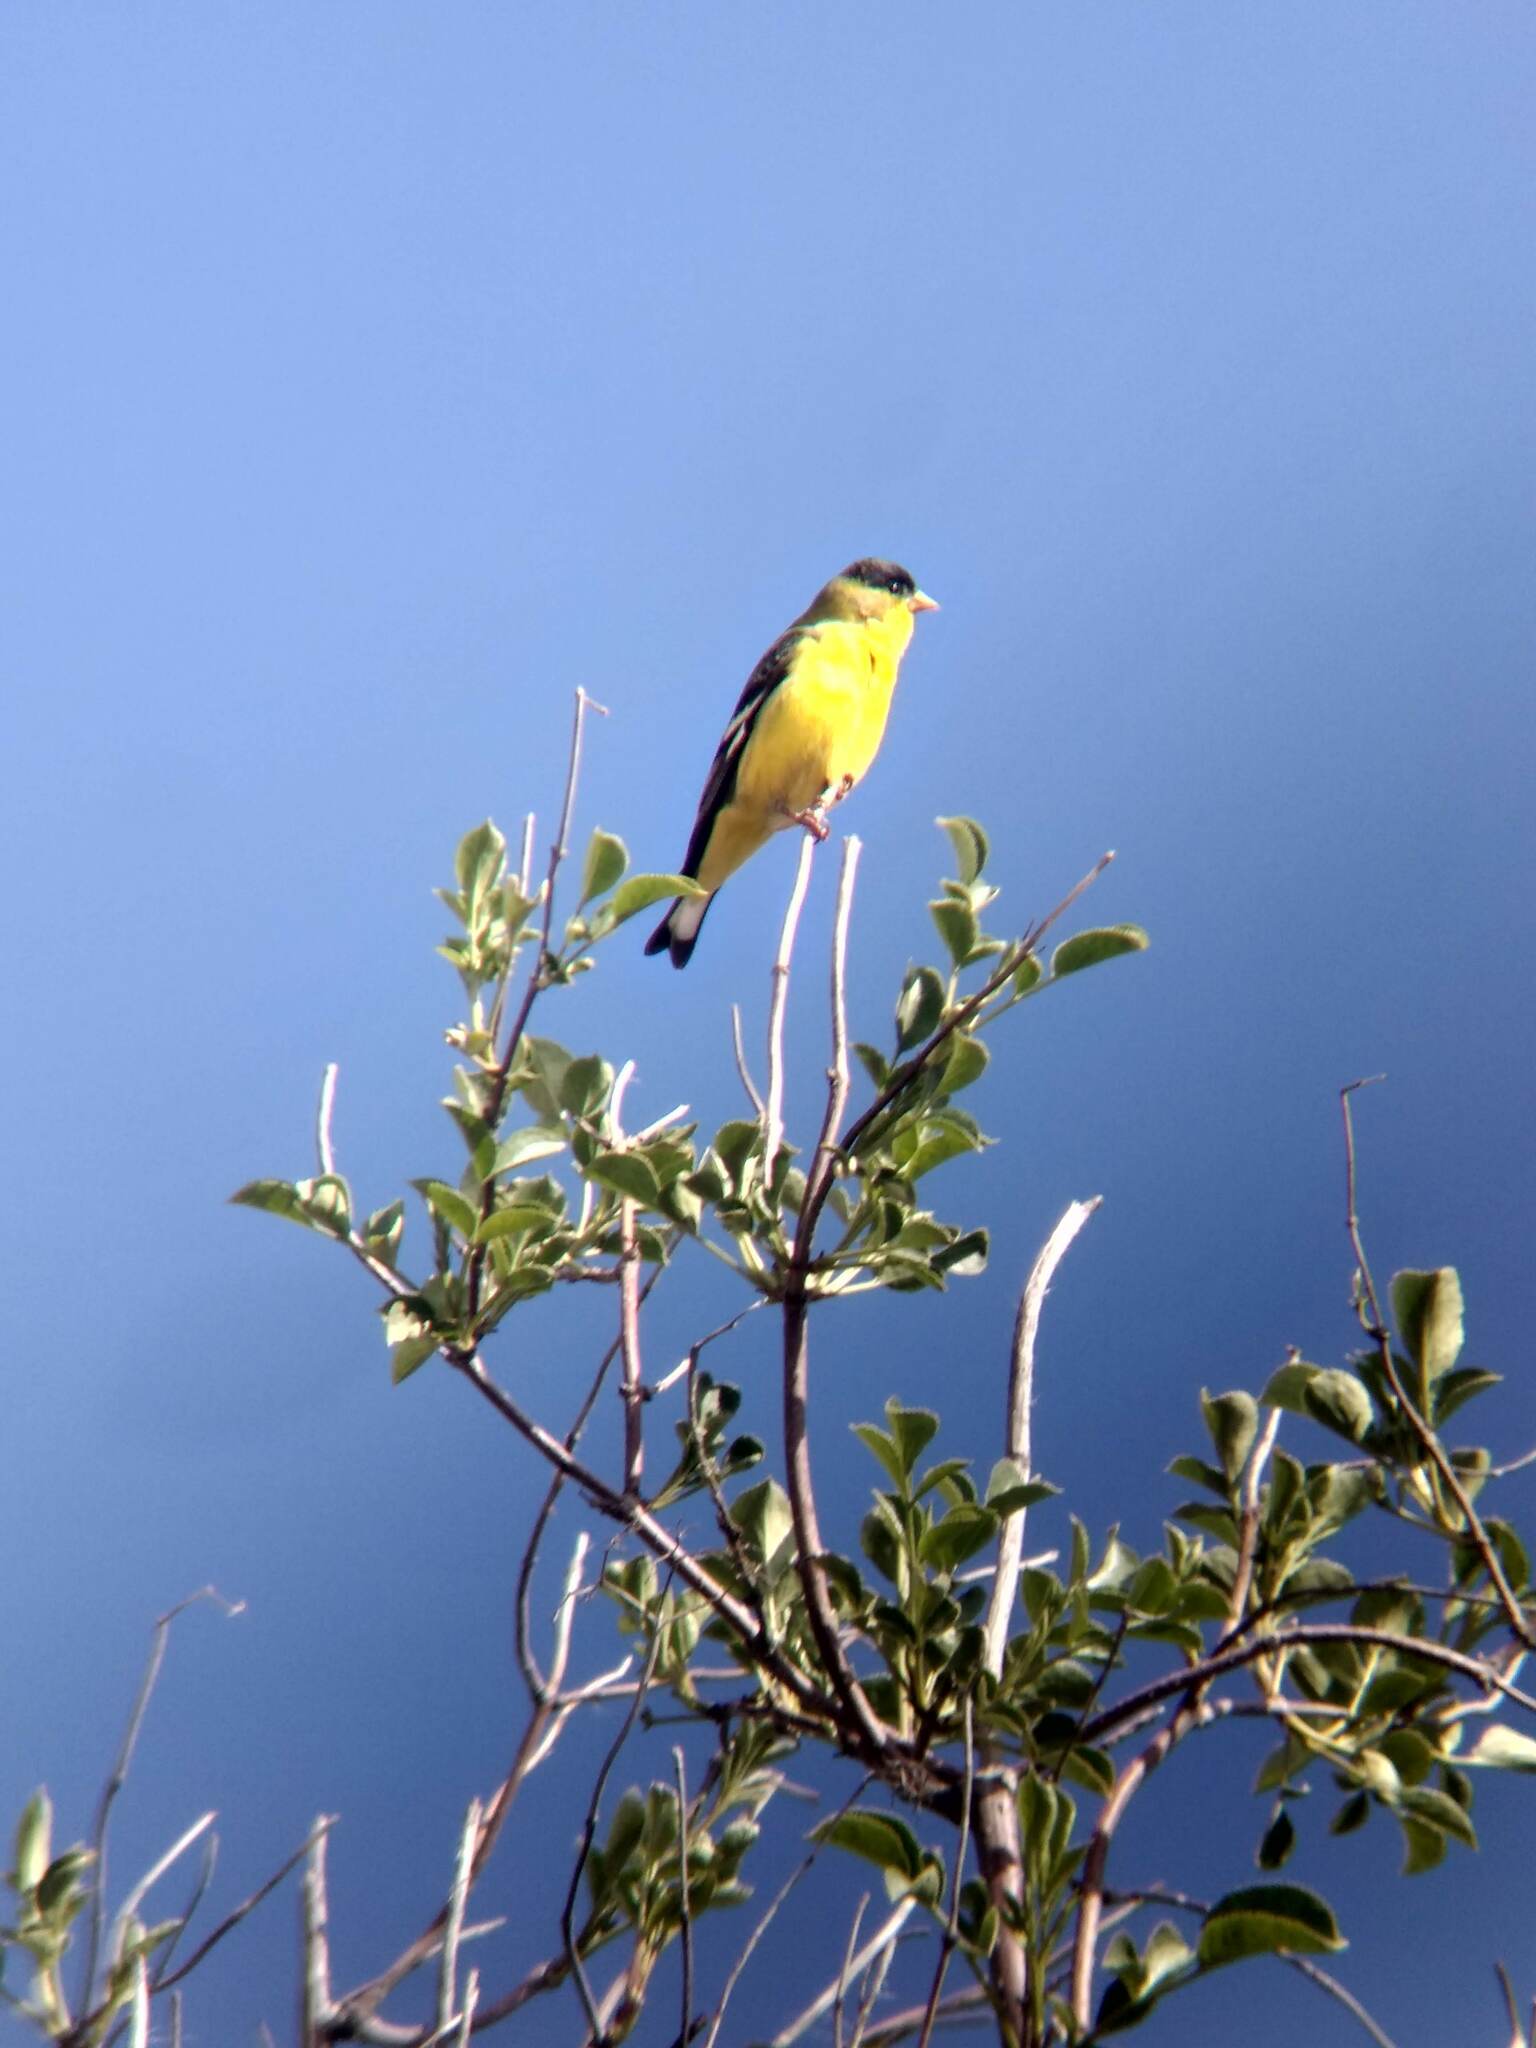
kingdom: Animalia
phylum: Chordata
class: Aves
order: Passeriformes
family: Fringillidae
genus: Spinus
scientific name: Spinus psaltria
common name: Lesser goldfinch
